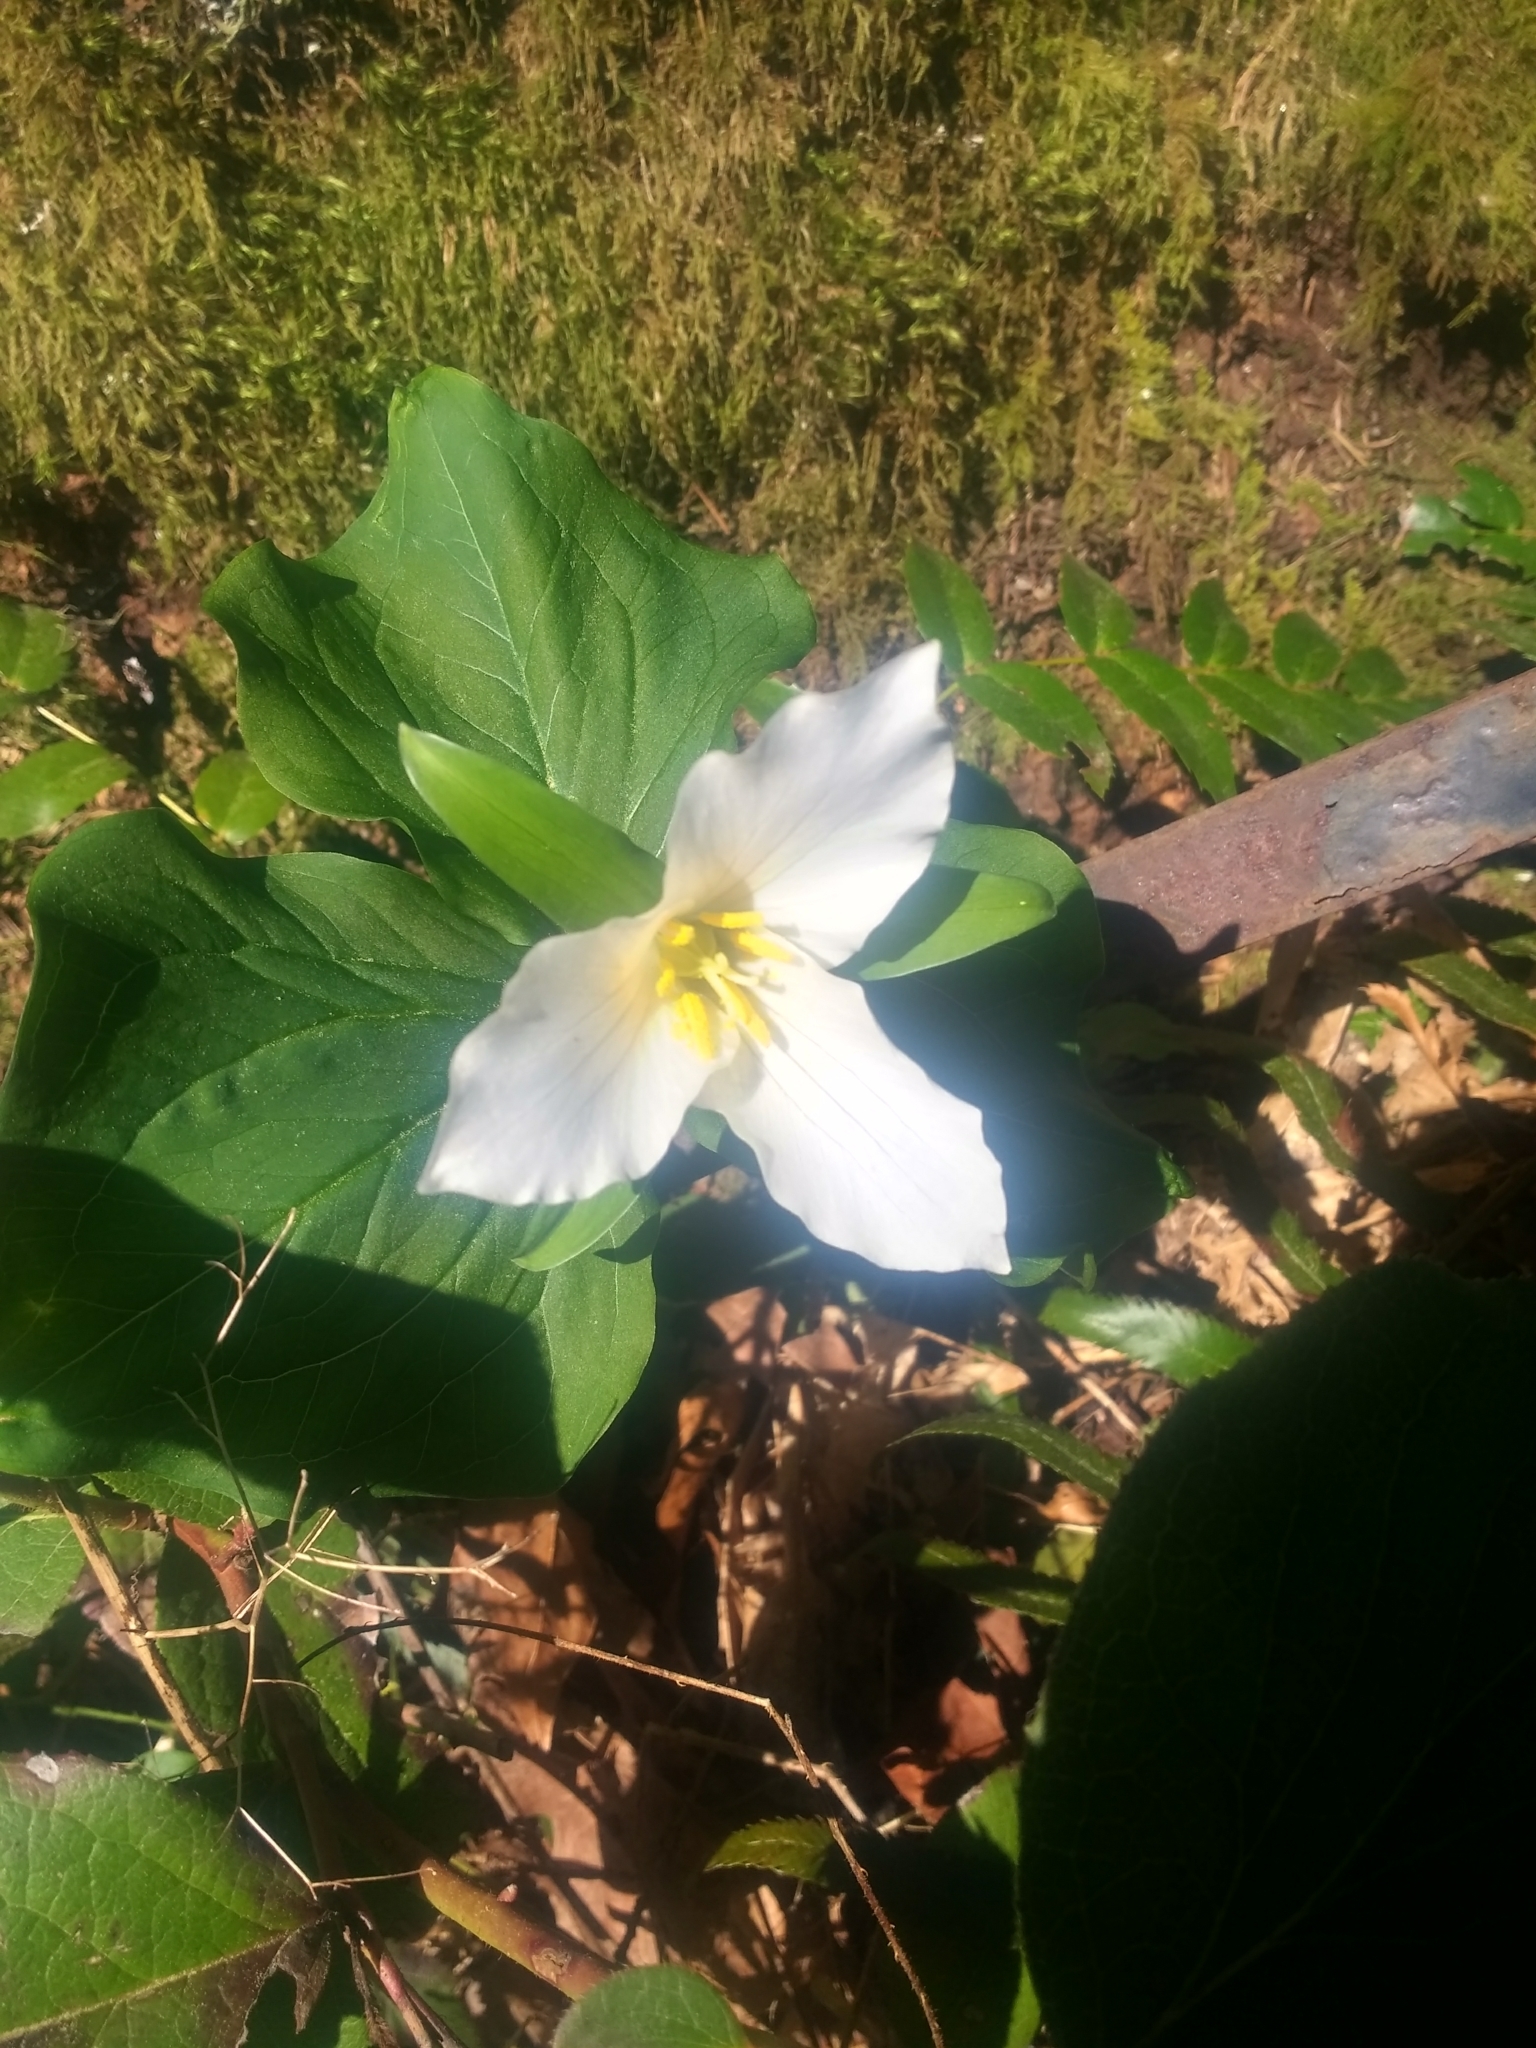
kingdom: Plantae
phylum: Tracheophyta
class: Liliopsida
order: Liliales
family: Melanthiaceae
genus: Trillium
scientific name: Trillium ovatum
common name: Pacific trillium
